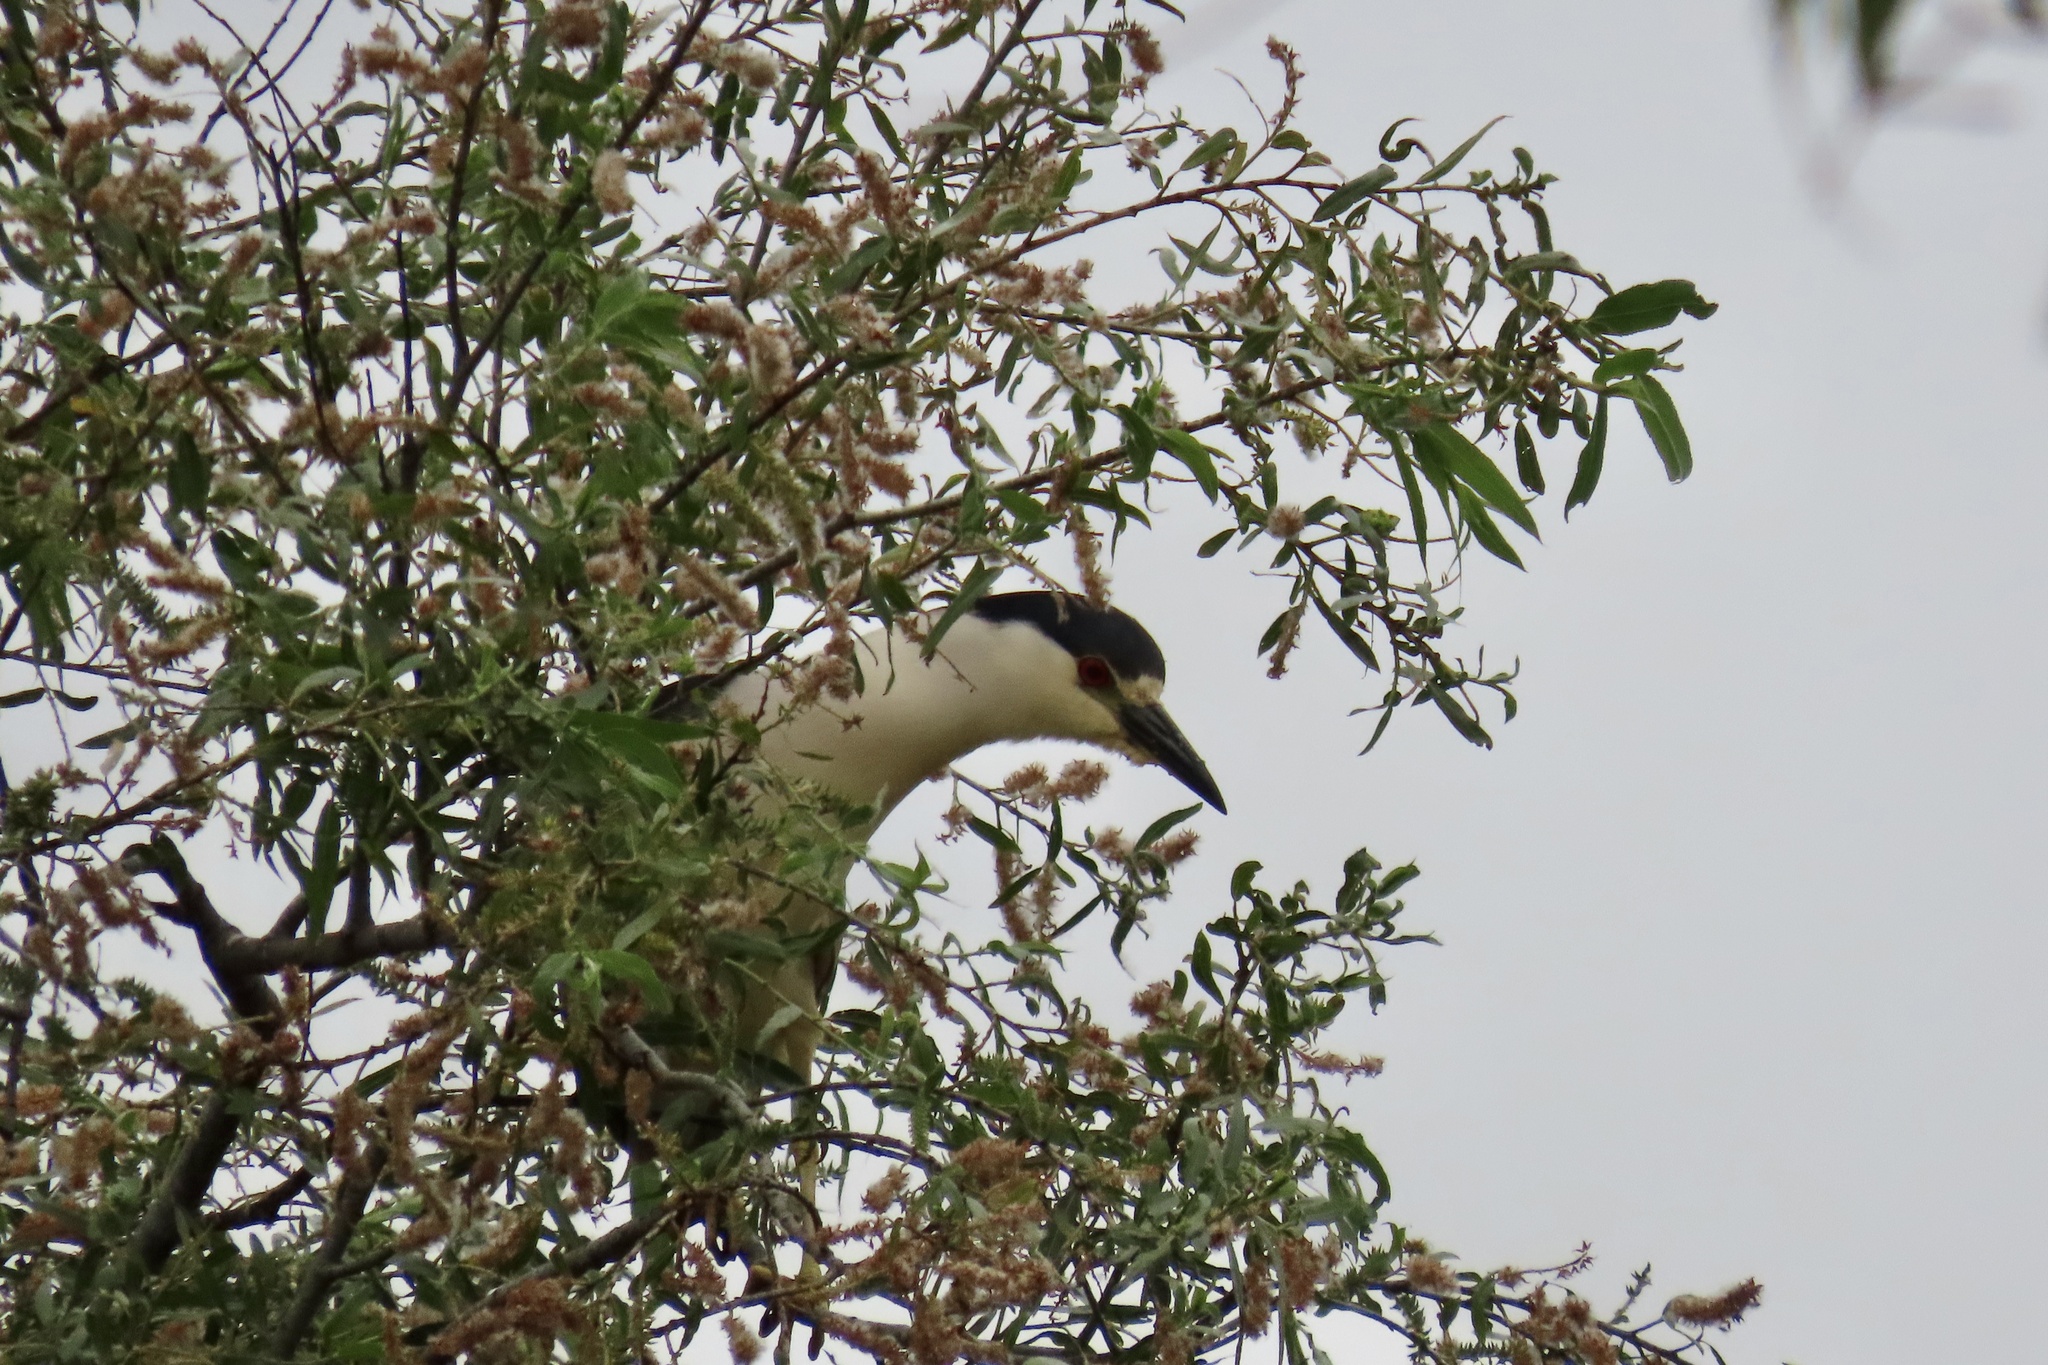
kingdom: Animalia
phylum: Chordata
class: Aves
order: Pelecaniformes
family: Ardeidae
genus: Nycticorax
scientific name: Nycticorax nycticorax
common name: Black-crowned night heron
